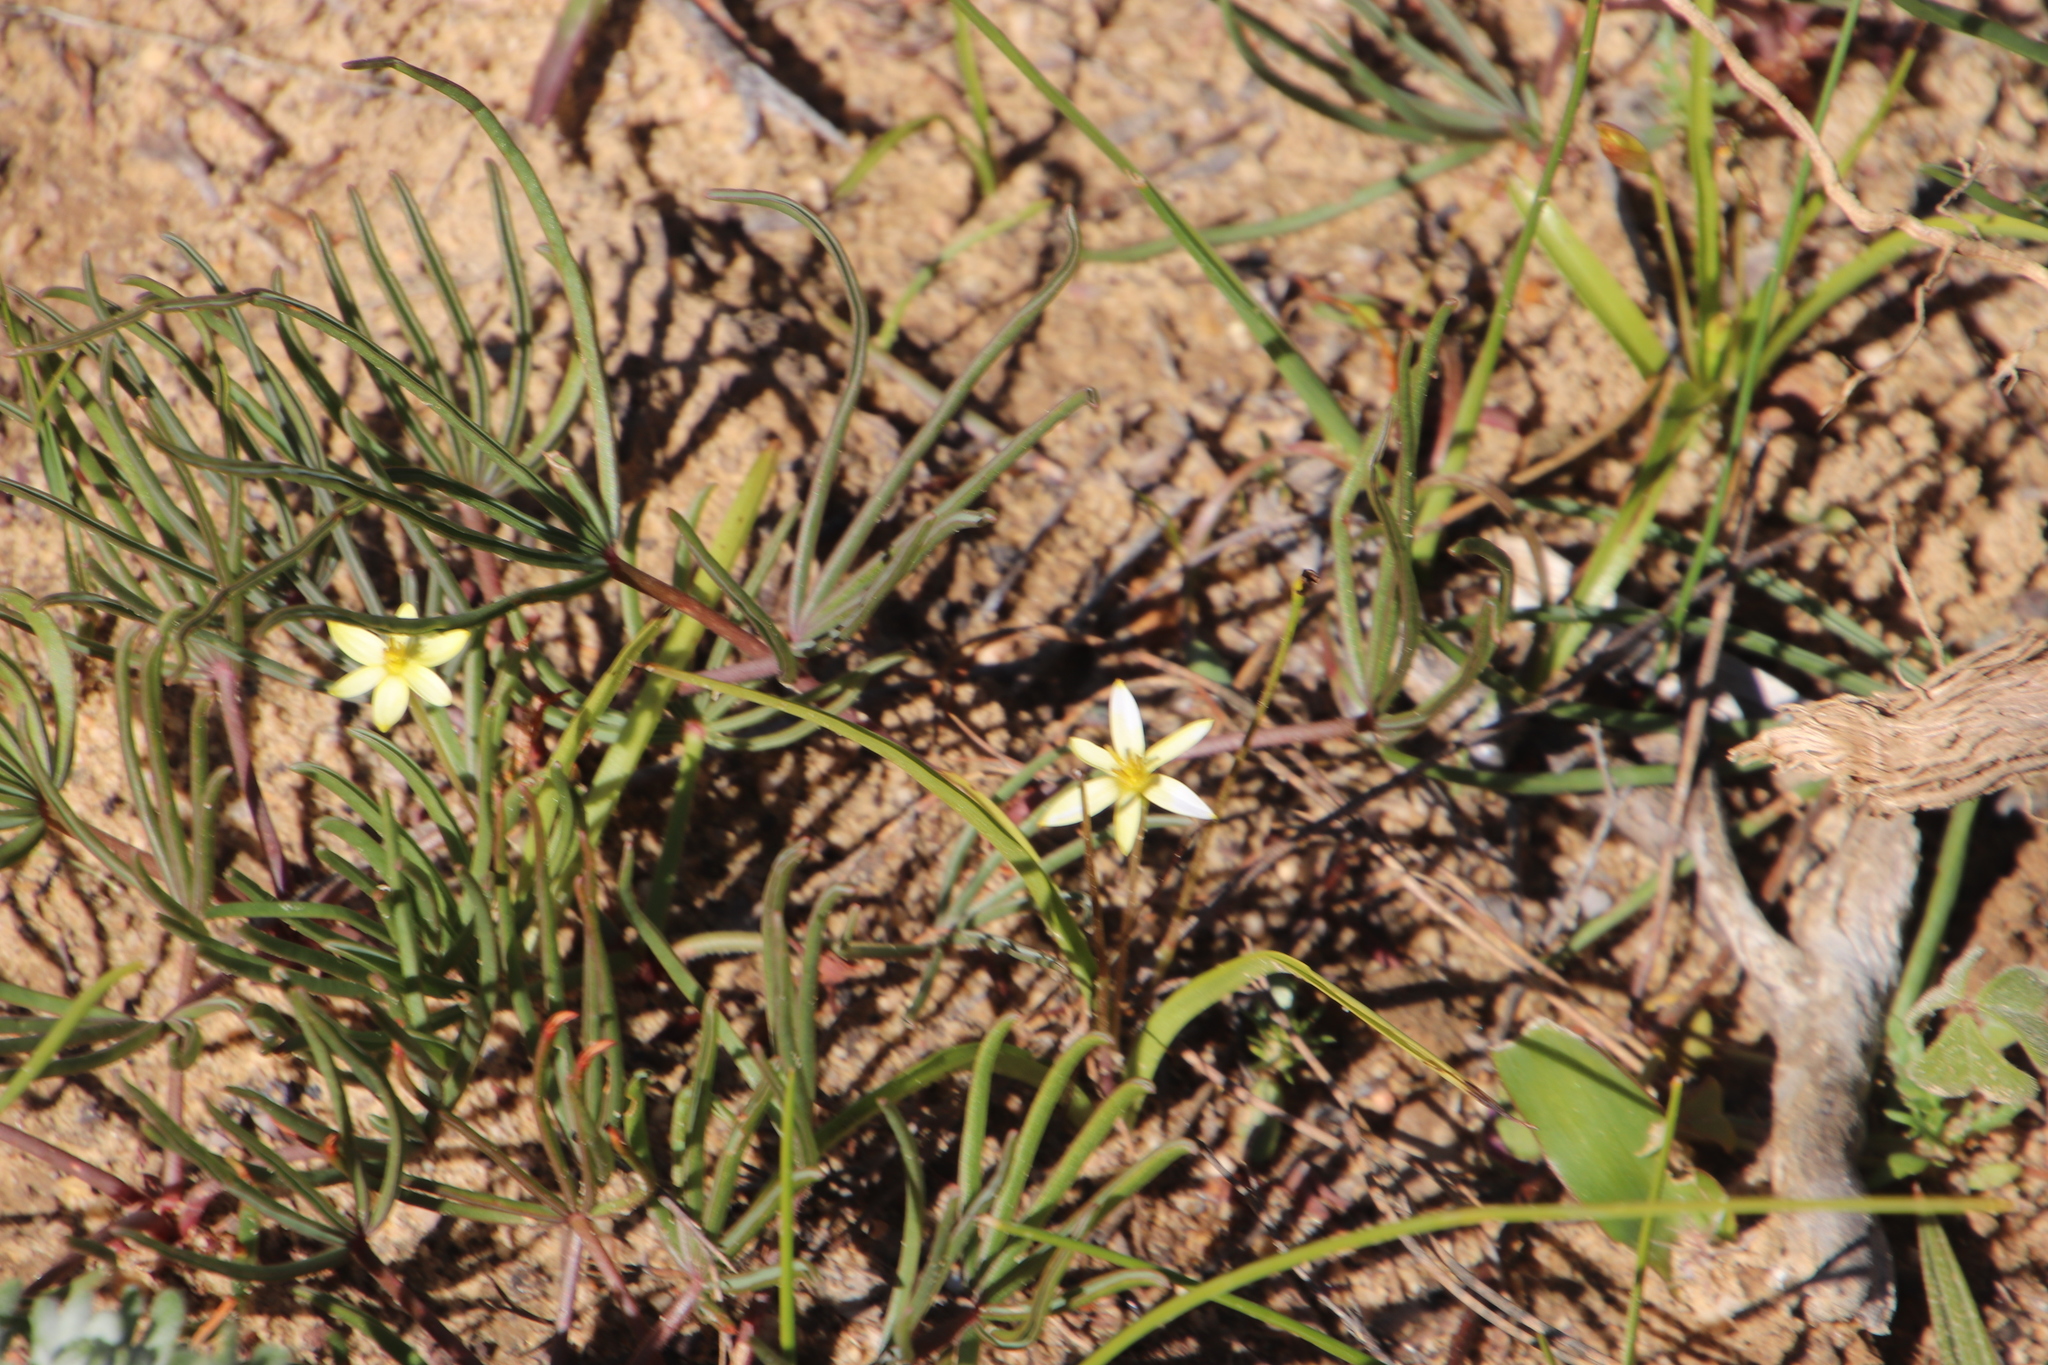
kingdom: Plantae
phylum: Tracheophyta
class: Liliopsida
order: Asparagales
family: Hypoxidaceae
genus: Pauridia
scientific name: Pauridia gracilipes
